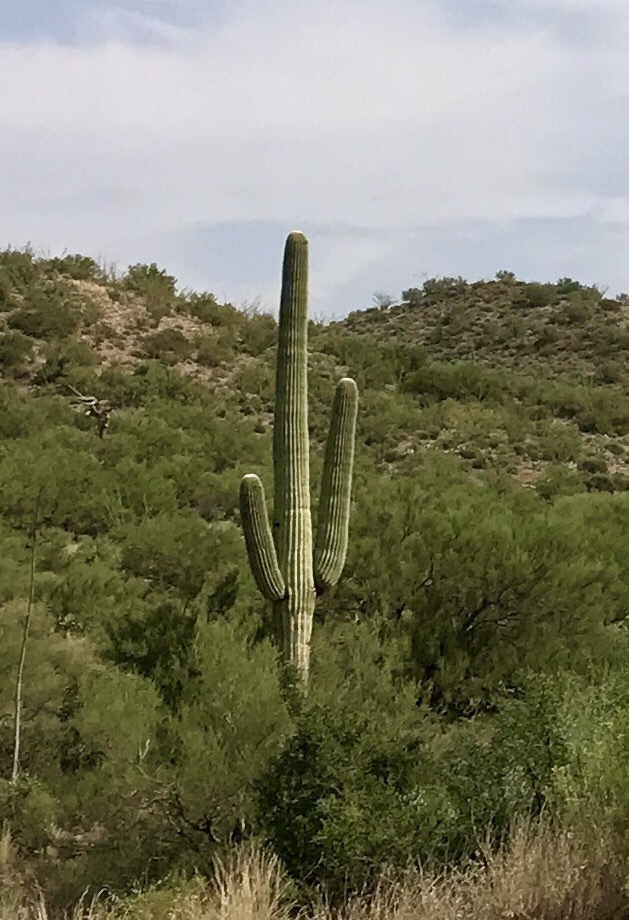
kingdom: Plantae
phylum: Tracheophyta
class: Magnoliopsida
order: Caryophyllales
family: Cactaceae
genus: Carnegiea
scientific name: Carnegiea gigantea
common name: Saguaro
